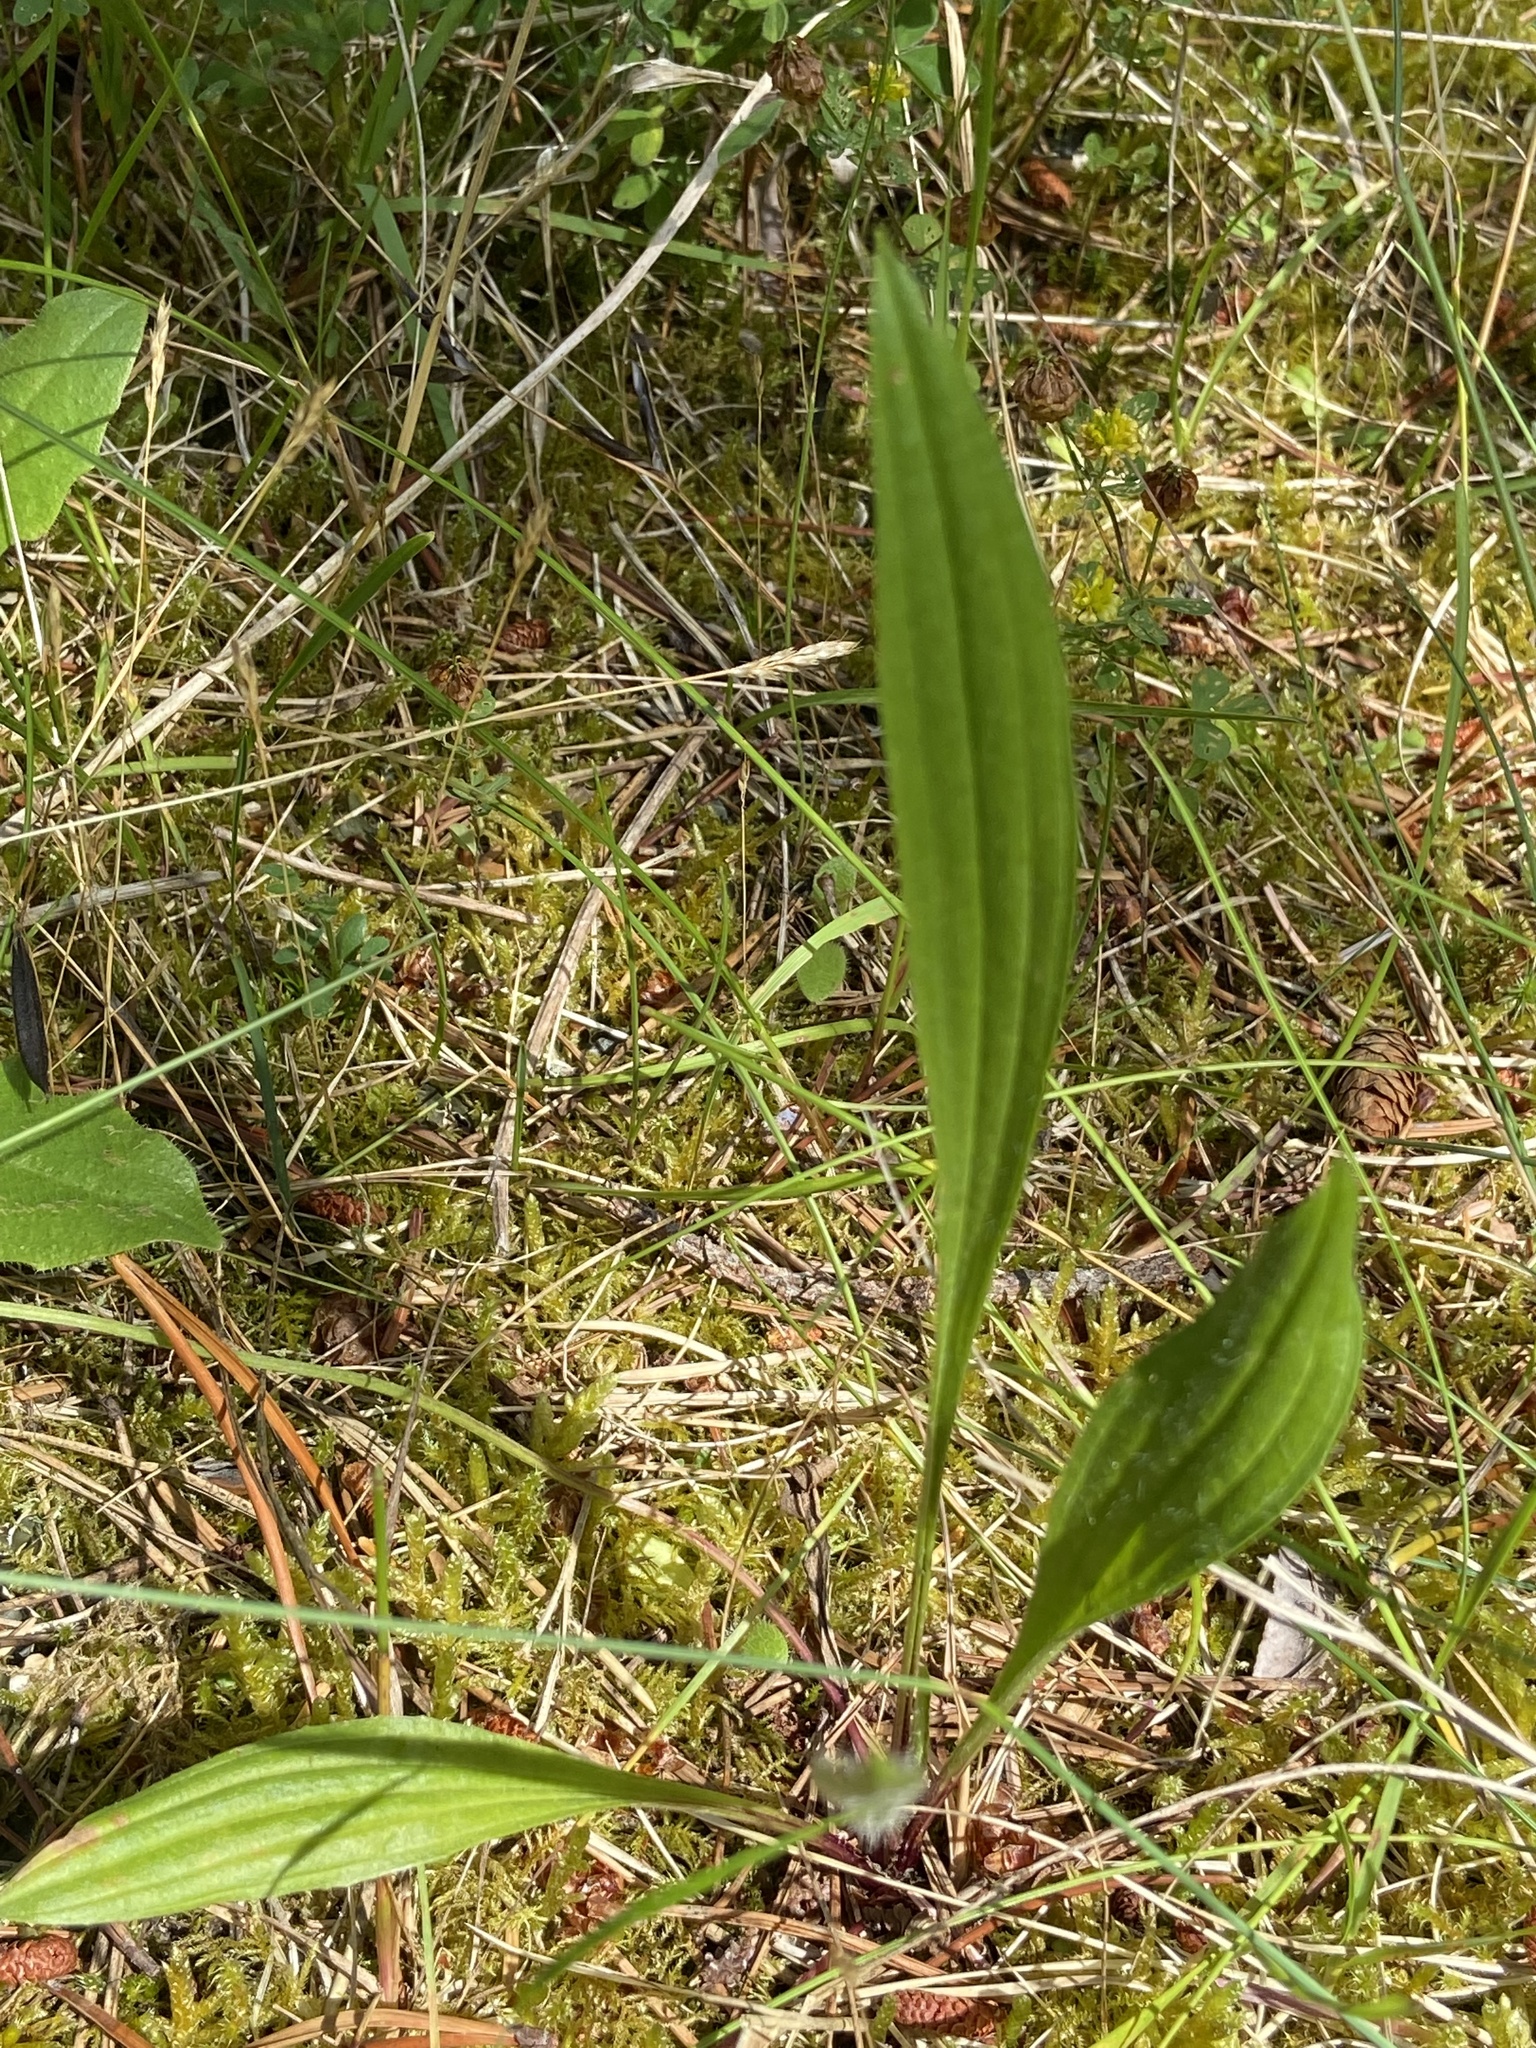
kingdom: Plantae
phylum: Tracheophyta
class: Magnoliopsida
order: Lamiales
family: Plantaginaceae
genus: Plantago
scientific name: Plantago lanceolata
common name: Ribwort plantain
